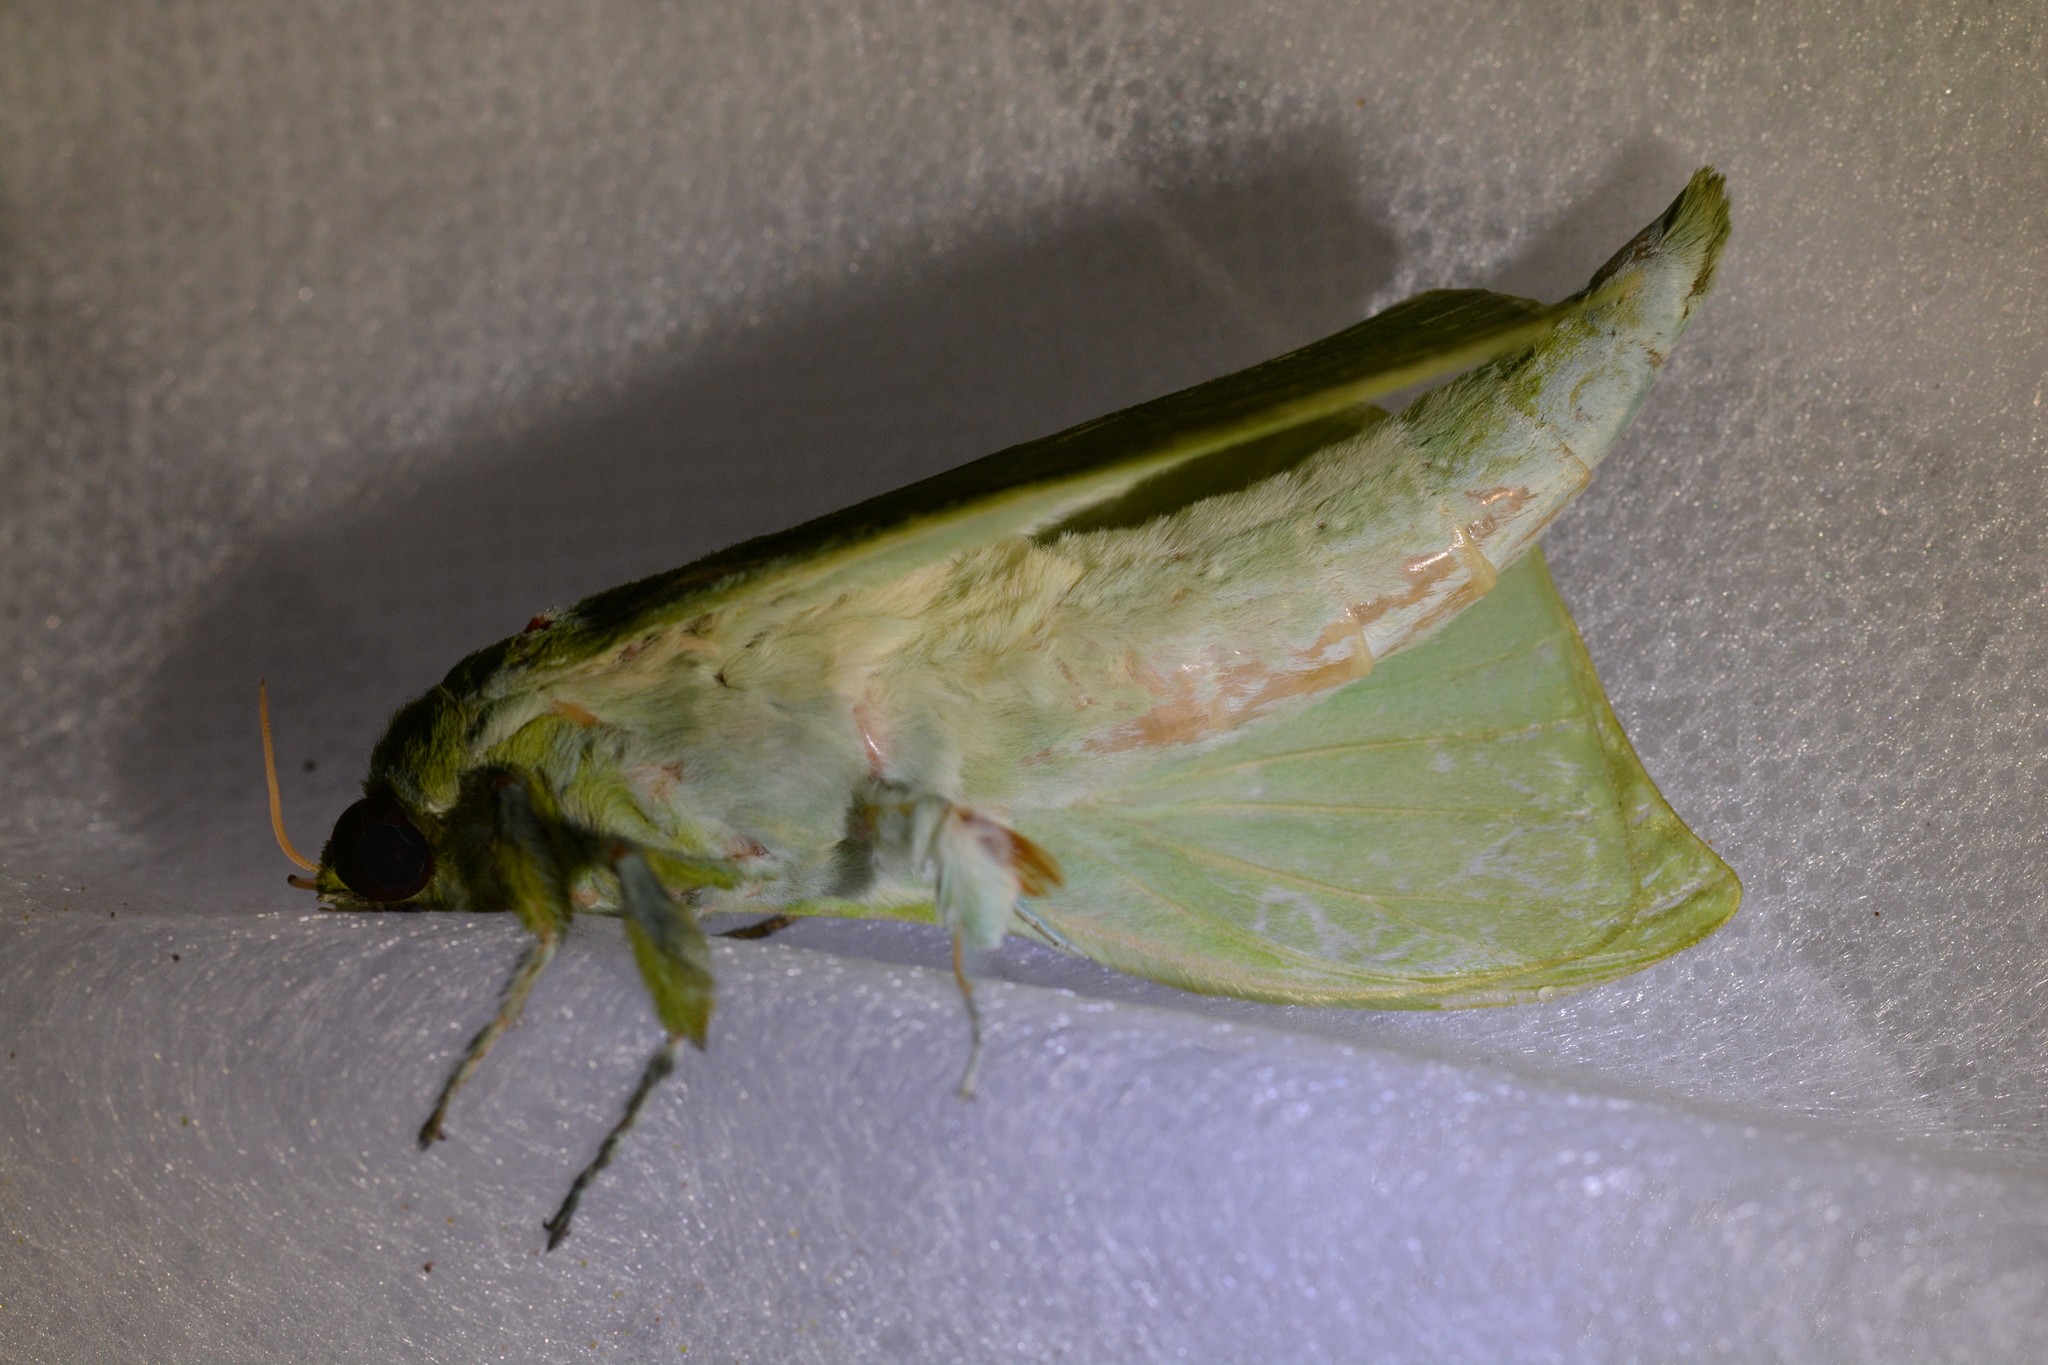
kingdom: Animalia
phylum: Arthropoda
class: Insecta
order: Lepidoptera
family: Hepialidae
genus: Aenetus
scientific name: Aenetus virescens
